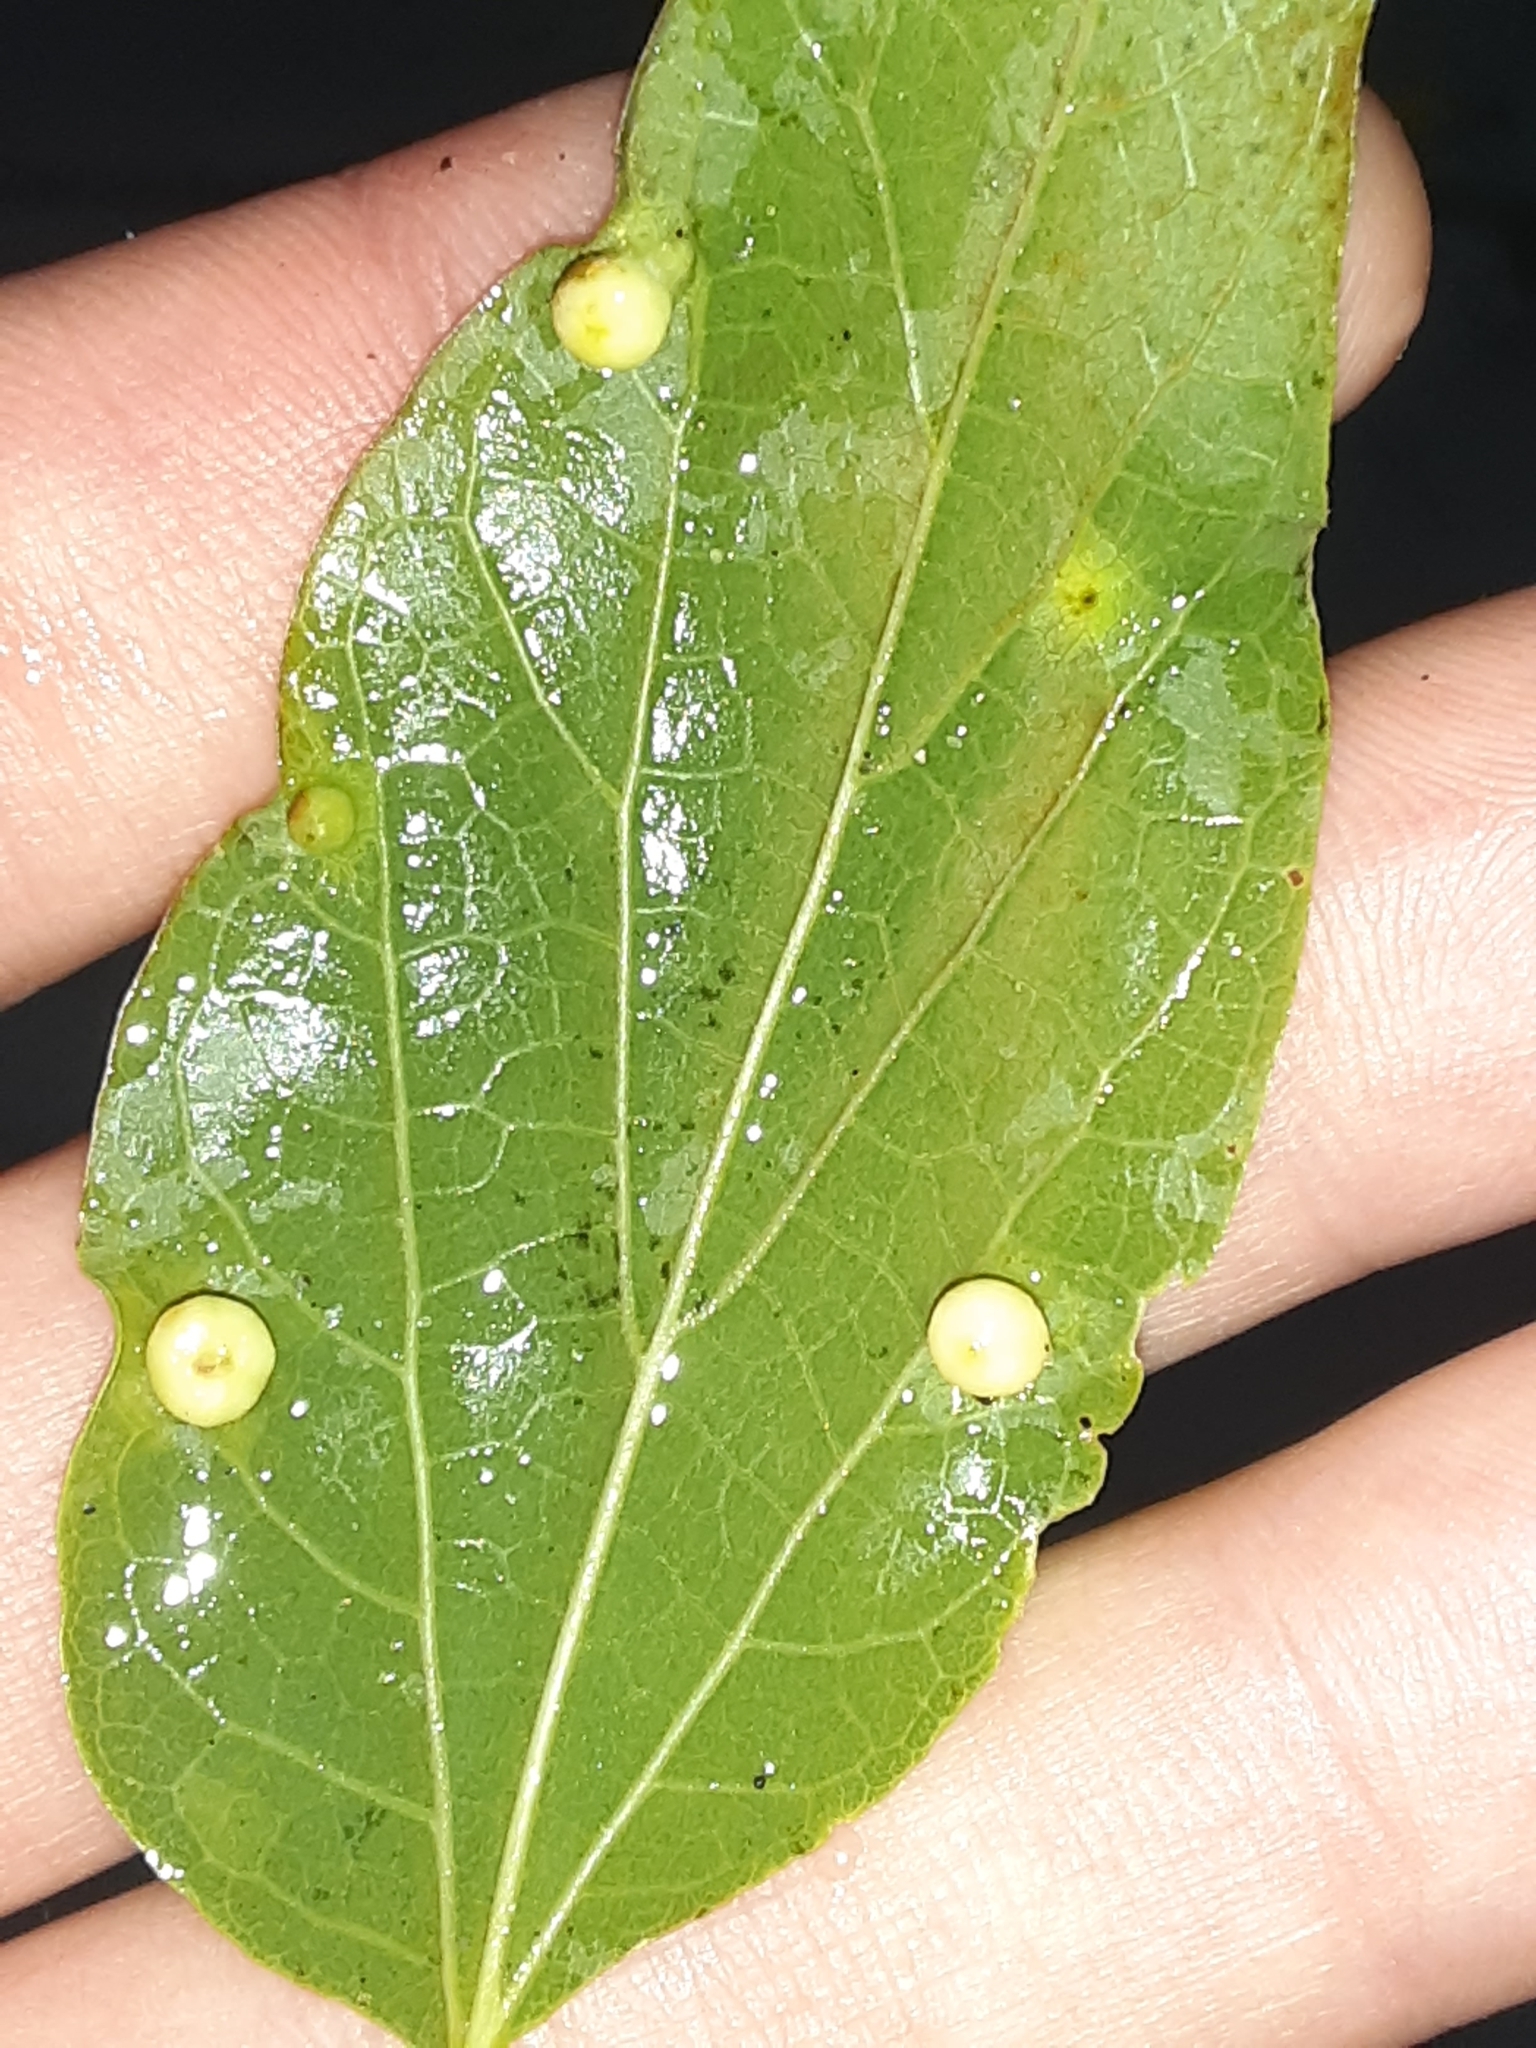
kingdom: Animalia
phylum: Arthropoda
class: Insecta
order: Hemiptera
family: Aphalaridae
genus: Pachypsylla
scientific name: Pachypsylla celtidismamma
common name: Hackberry nipplegall psyllid
